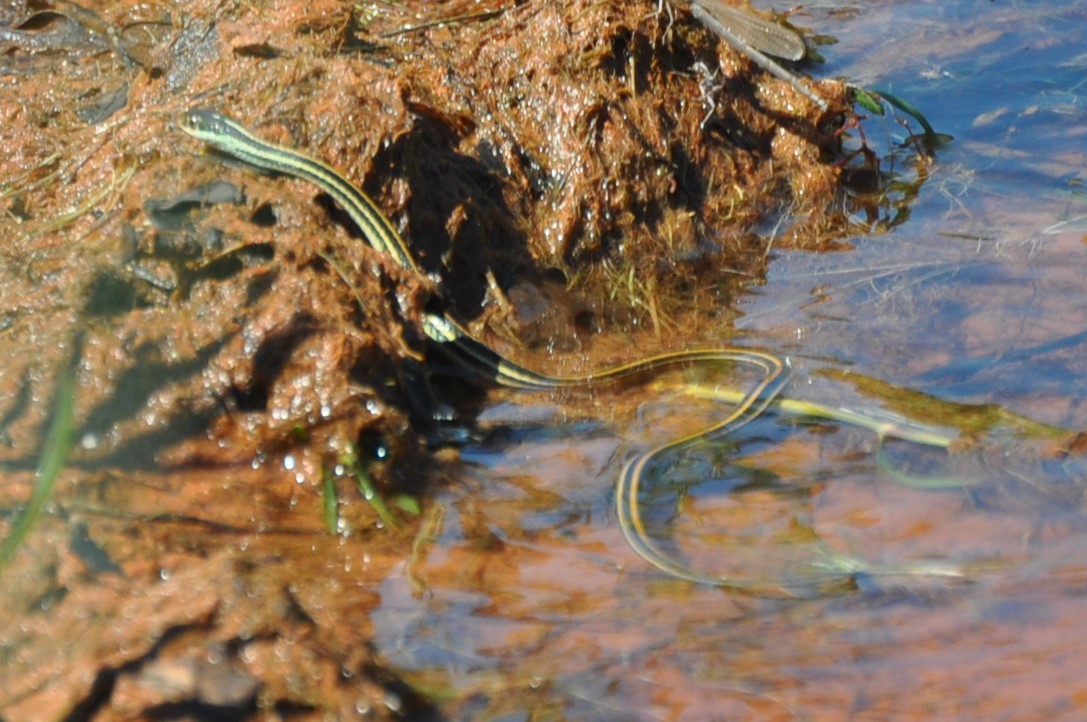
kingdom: Animalia
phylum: Chordata
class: Squamata
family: Colubridae
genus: Thamnophis
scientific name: Thamnophis proximus
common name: Western ribbon snake
